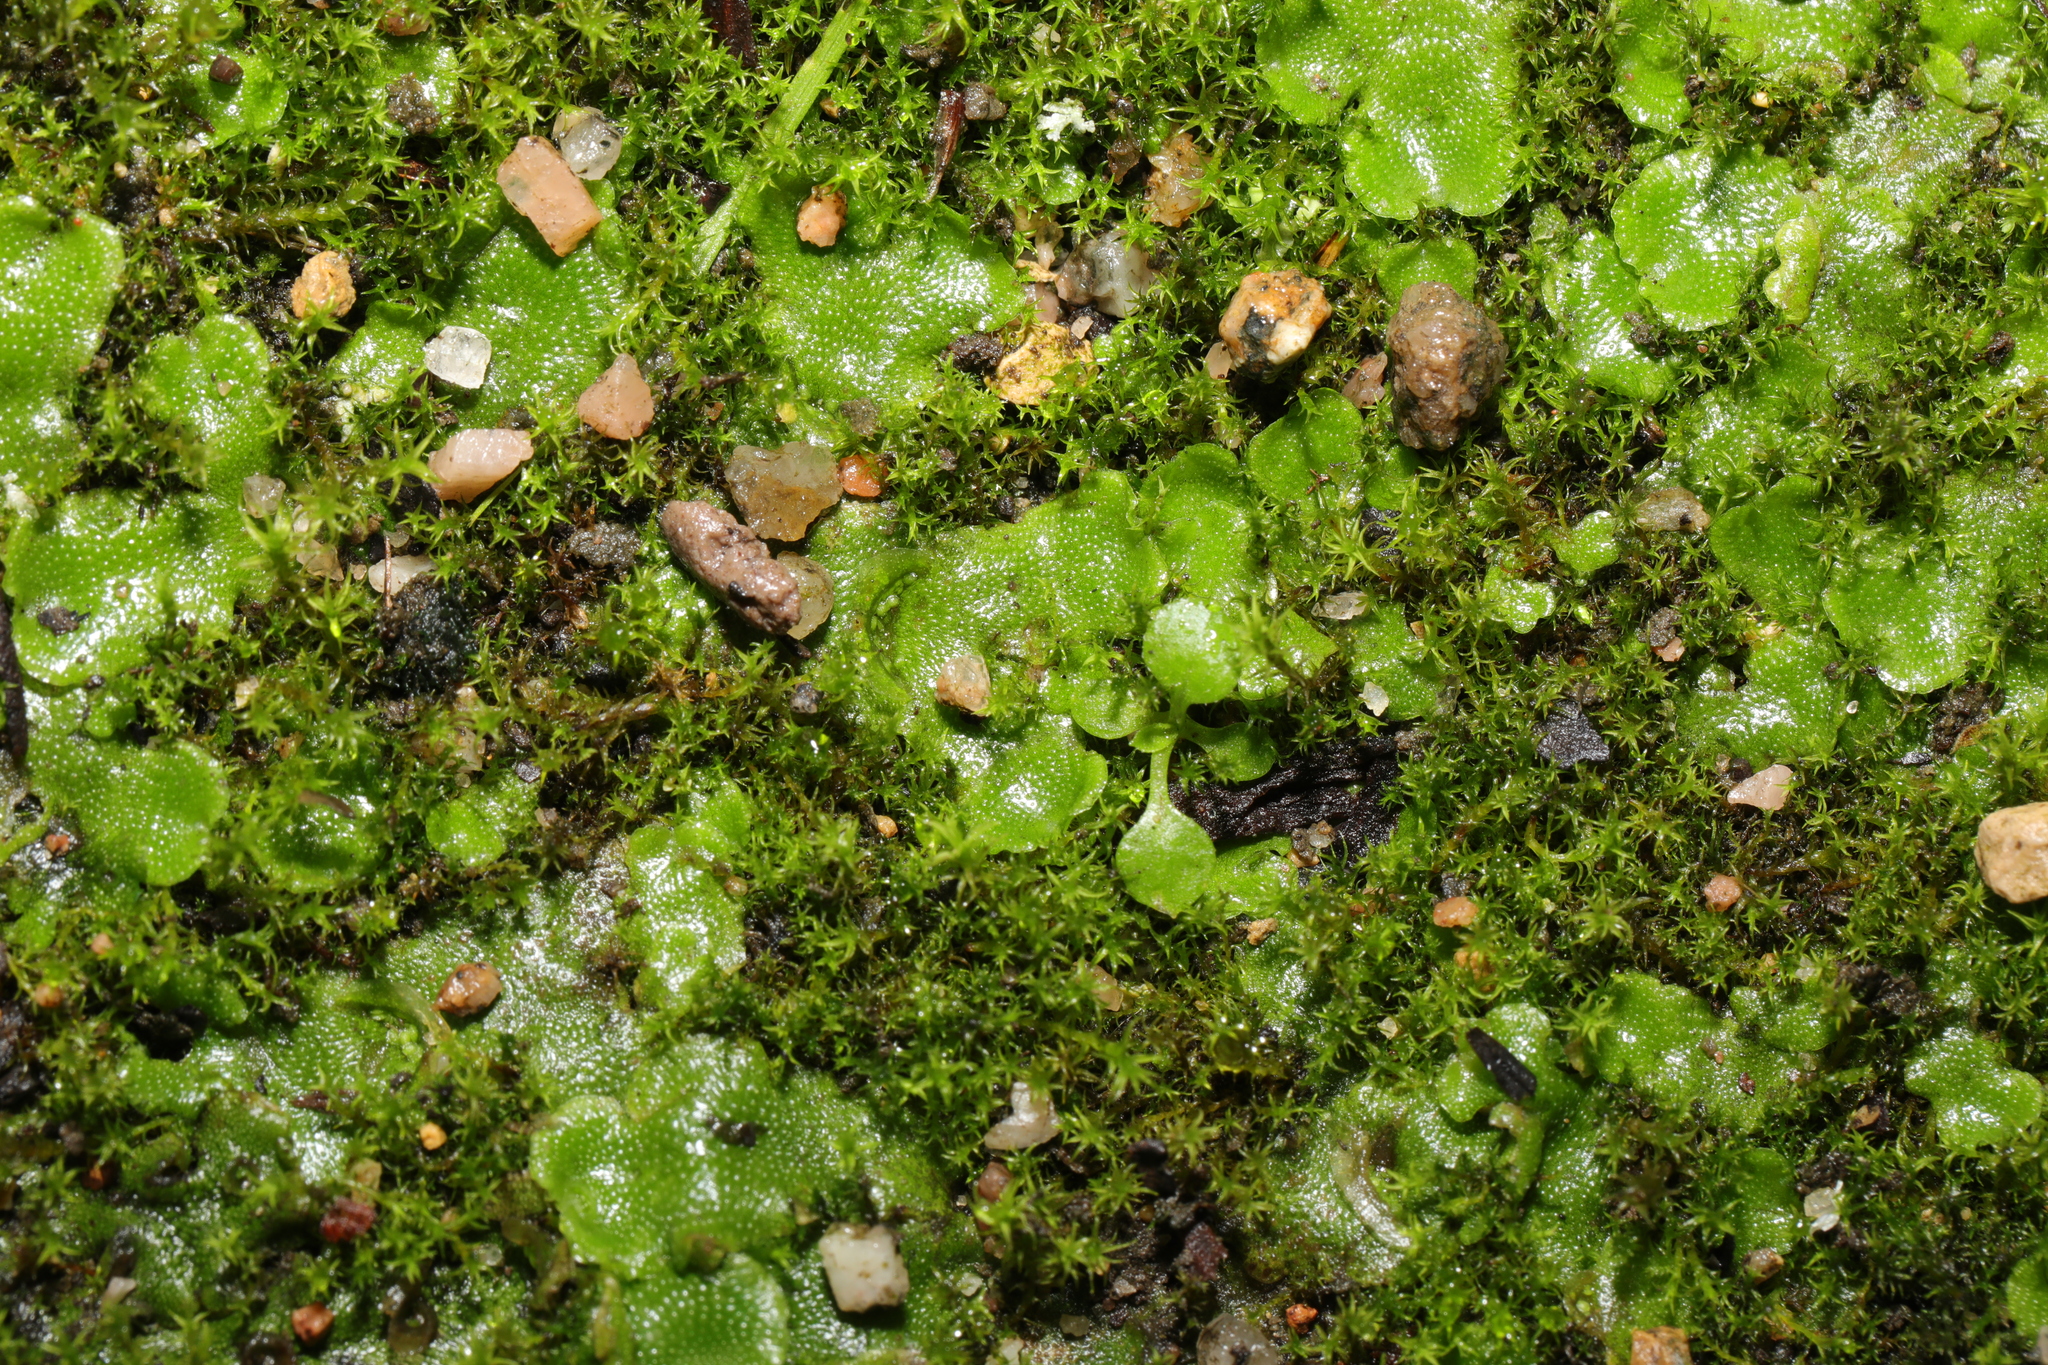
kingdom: Plantae
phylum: Marchantiophyta
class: Marchantiopsida
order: Lunulariales
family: Lunulariaceae
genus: Lunularia
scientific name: Lunularia cruciata
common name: Crescent-cup liverwort
